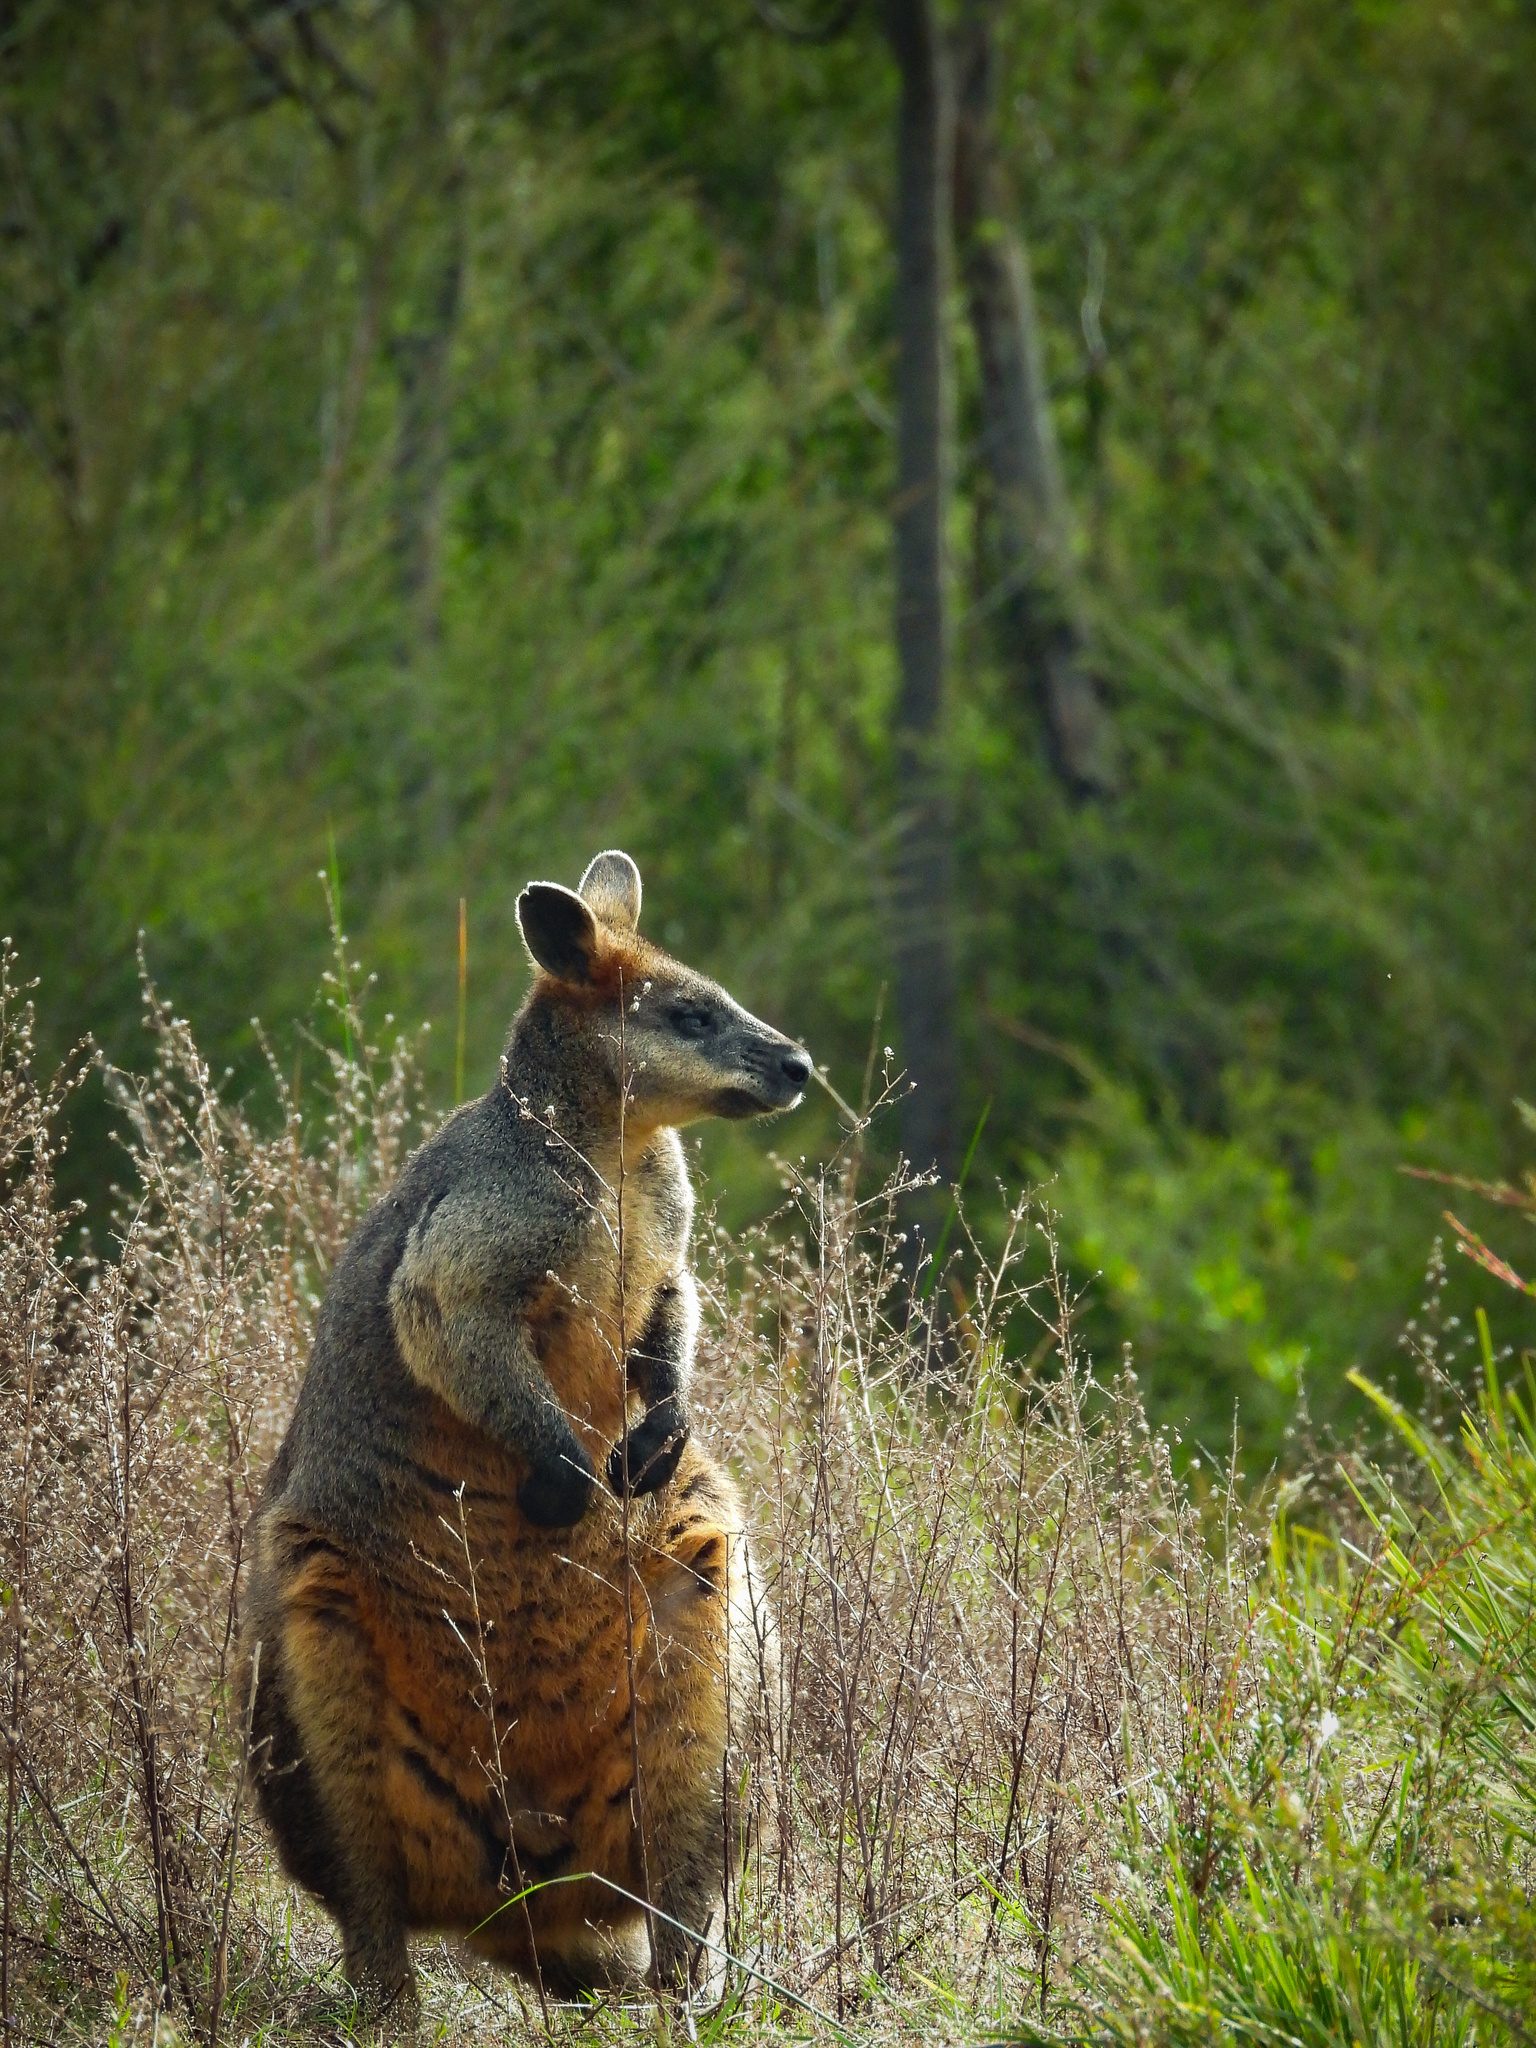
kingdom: Animalia
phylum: Chordata
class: Mammalia
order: Diprotodontia
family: Macropodidae
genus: Wallabia
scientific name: Wallabia bicolor
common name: Swamp wallaby
